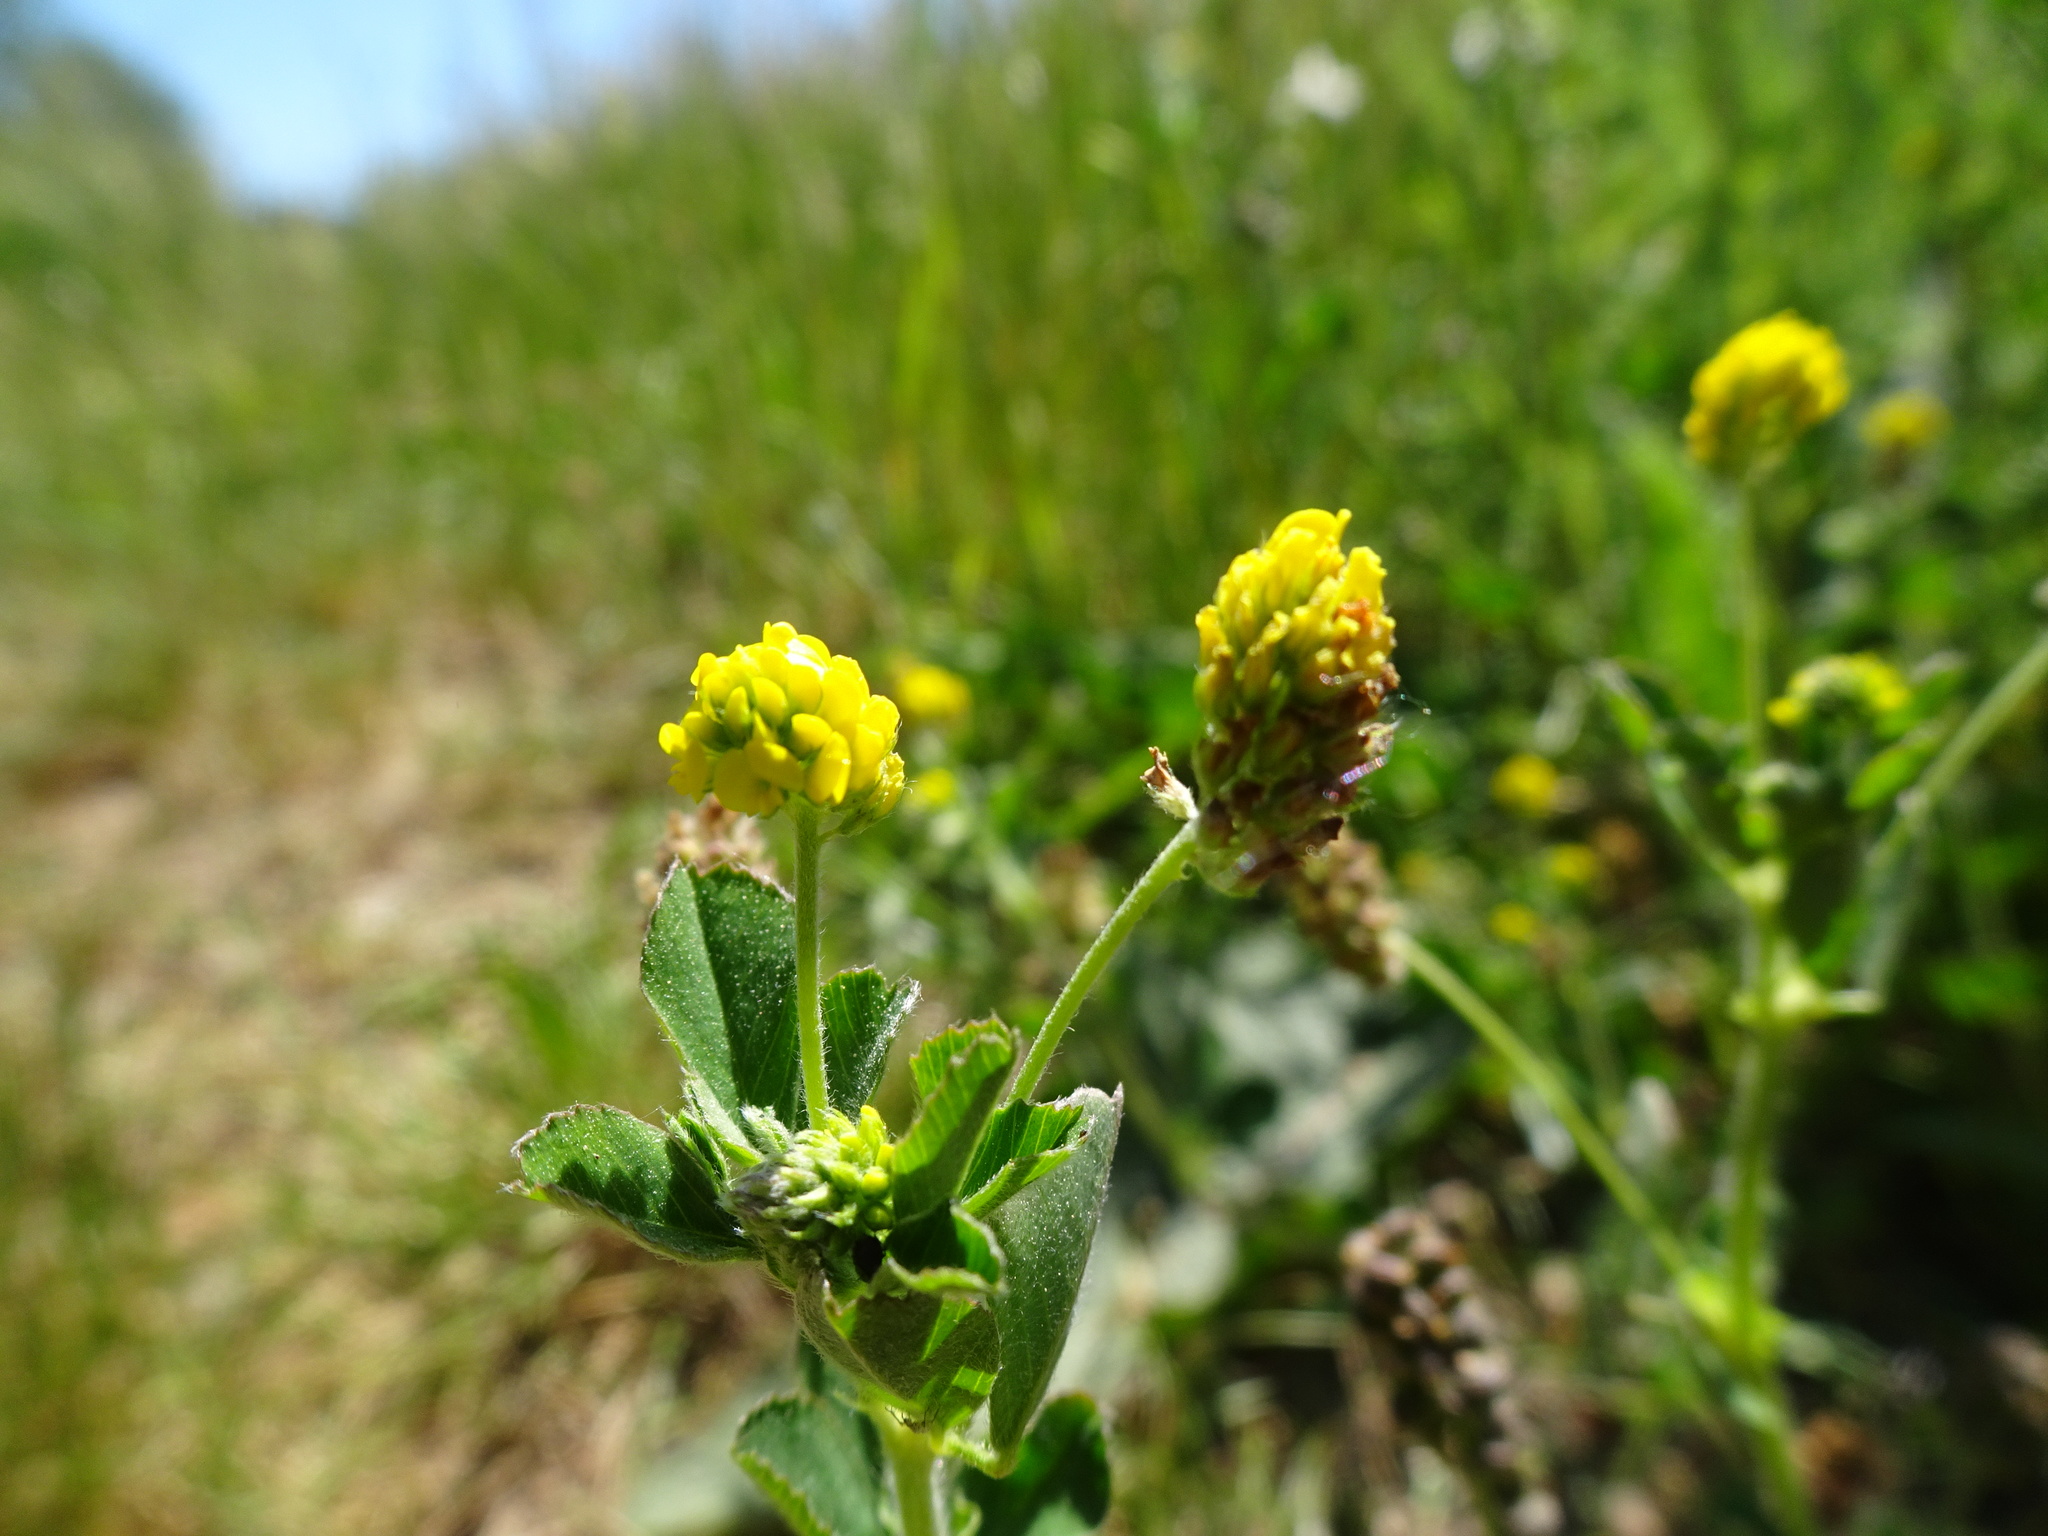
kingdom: Plantae
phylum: Tracheophyta
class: Magnoliopsida
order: Fabales
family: Fabaceae
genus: Medicago
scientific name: Medicago lupulina
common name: Black medick
